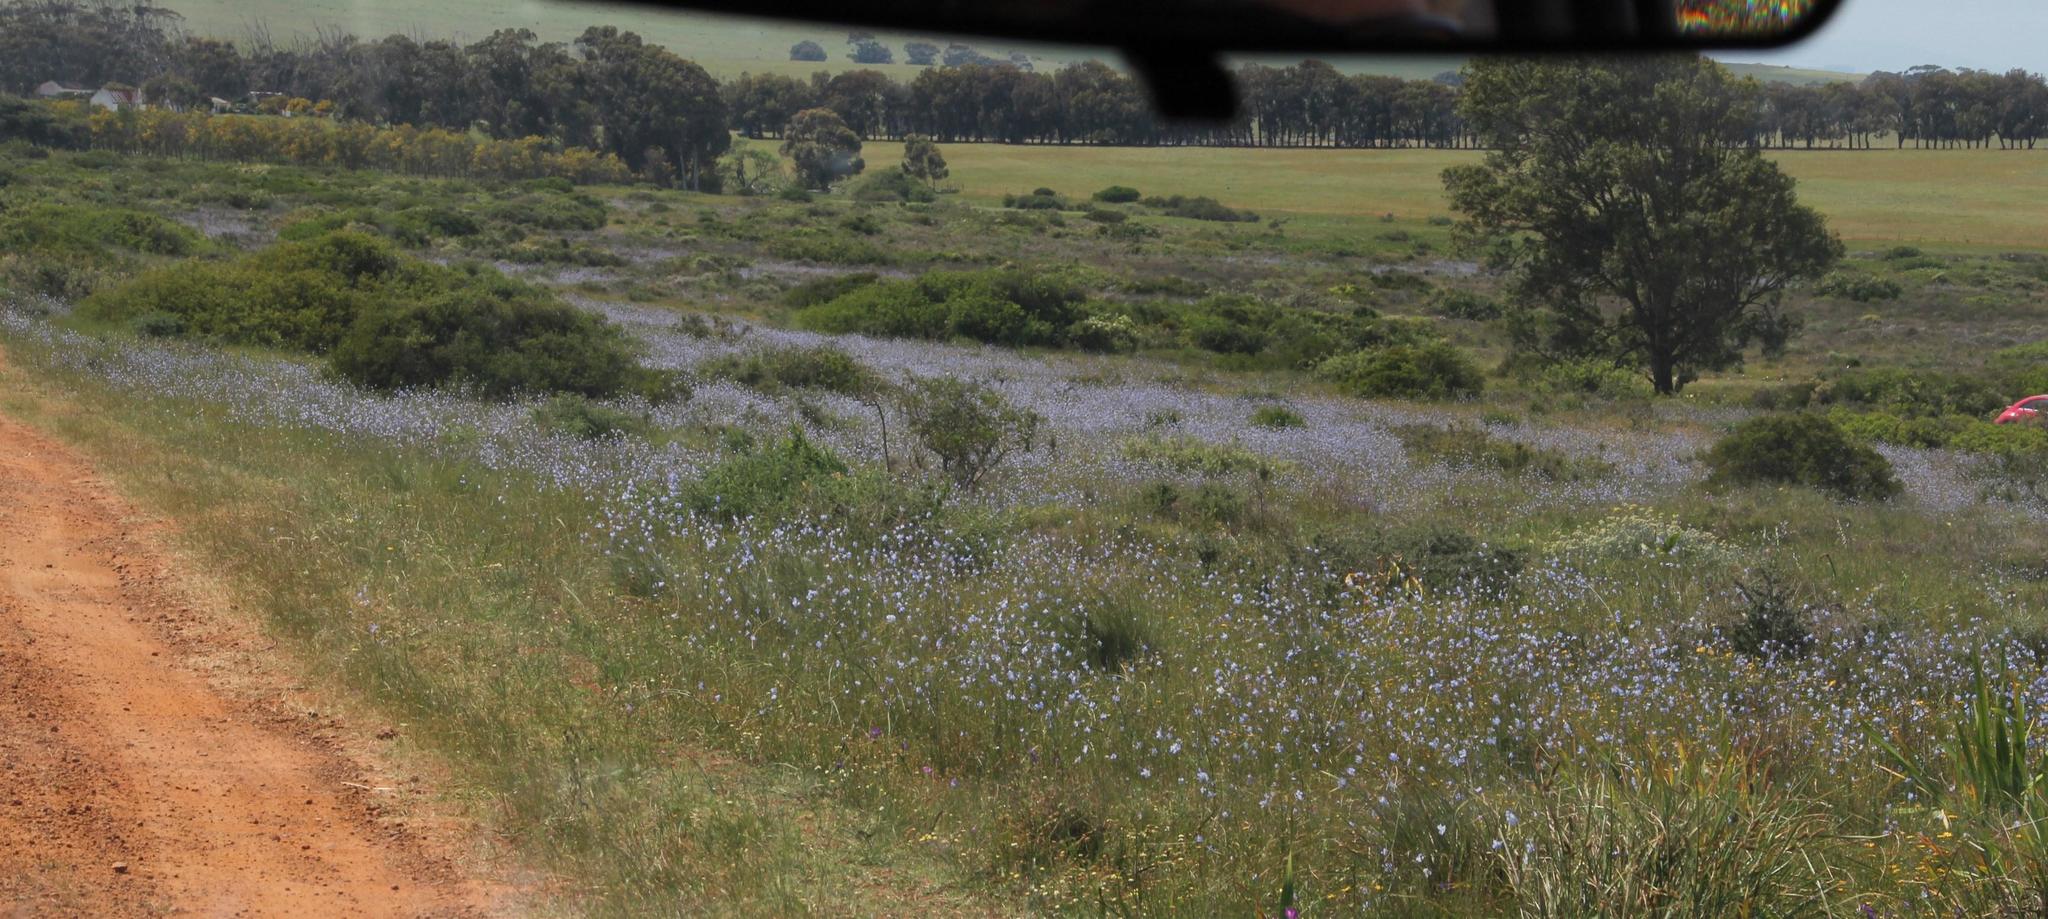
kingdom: Plantae
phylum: Tracheophyta
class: Magnoliopsida
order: Brassicales
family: Brassicaceae
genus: Heliophila
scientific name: Heliophila coronopifolia
